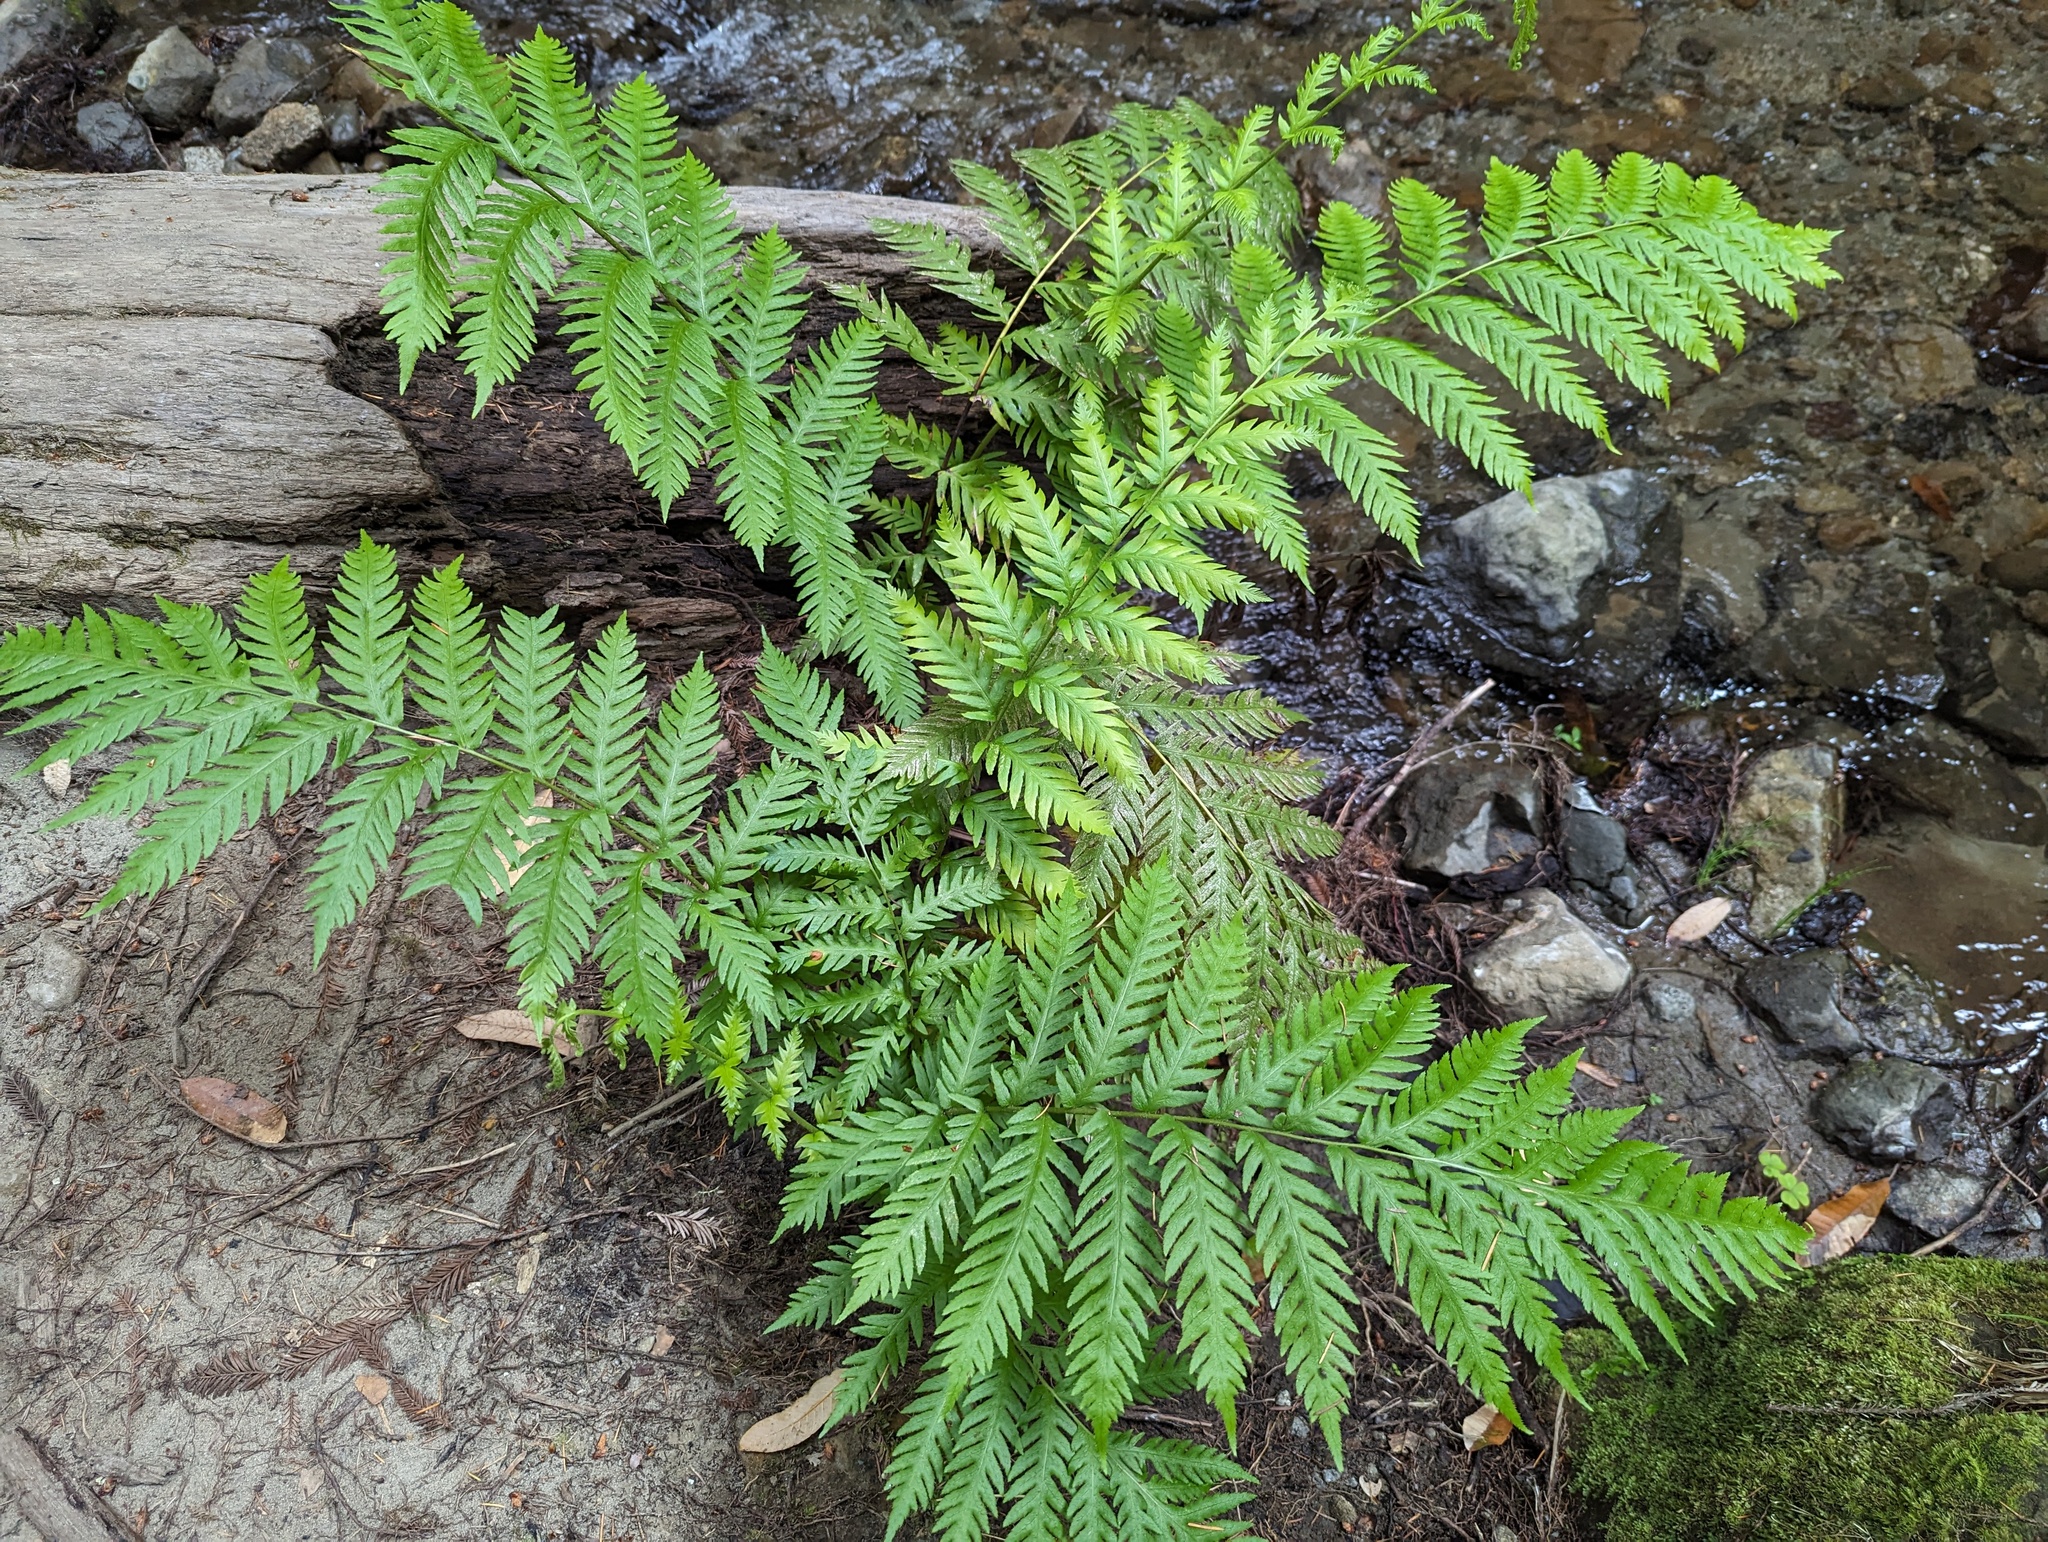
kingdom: Plantae
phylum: Tracheophyta
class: Polypodiopsida
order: Polypodiales
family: Blechnaceae
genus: Woodwardia
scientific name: Woodwardia fimbriata
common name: Giant chain fern
